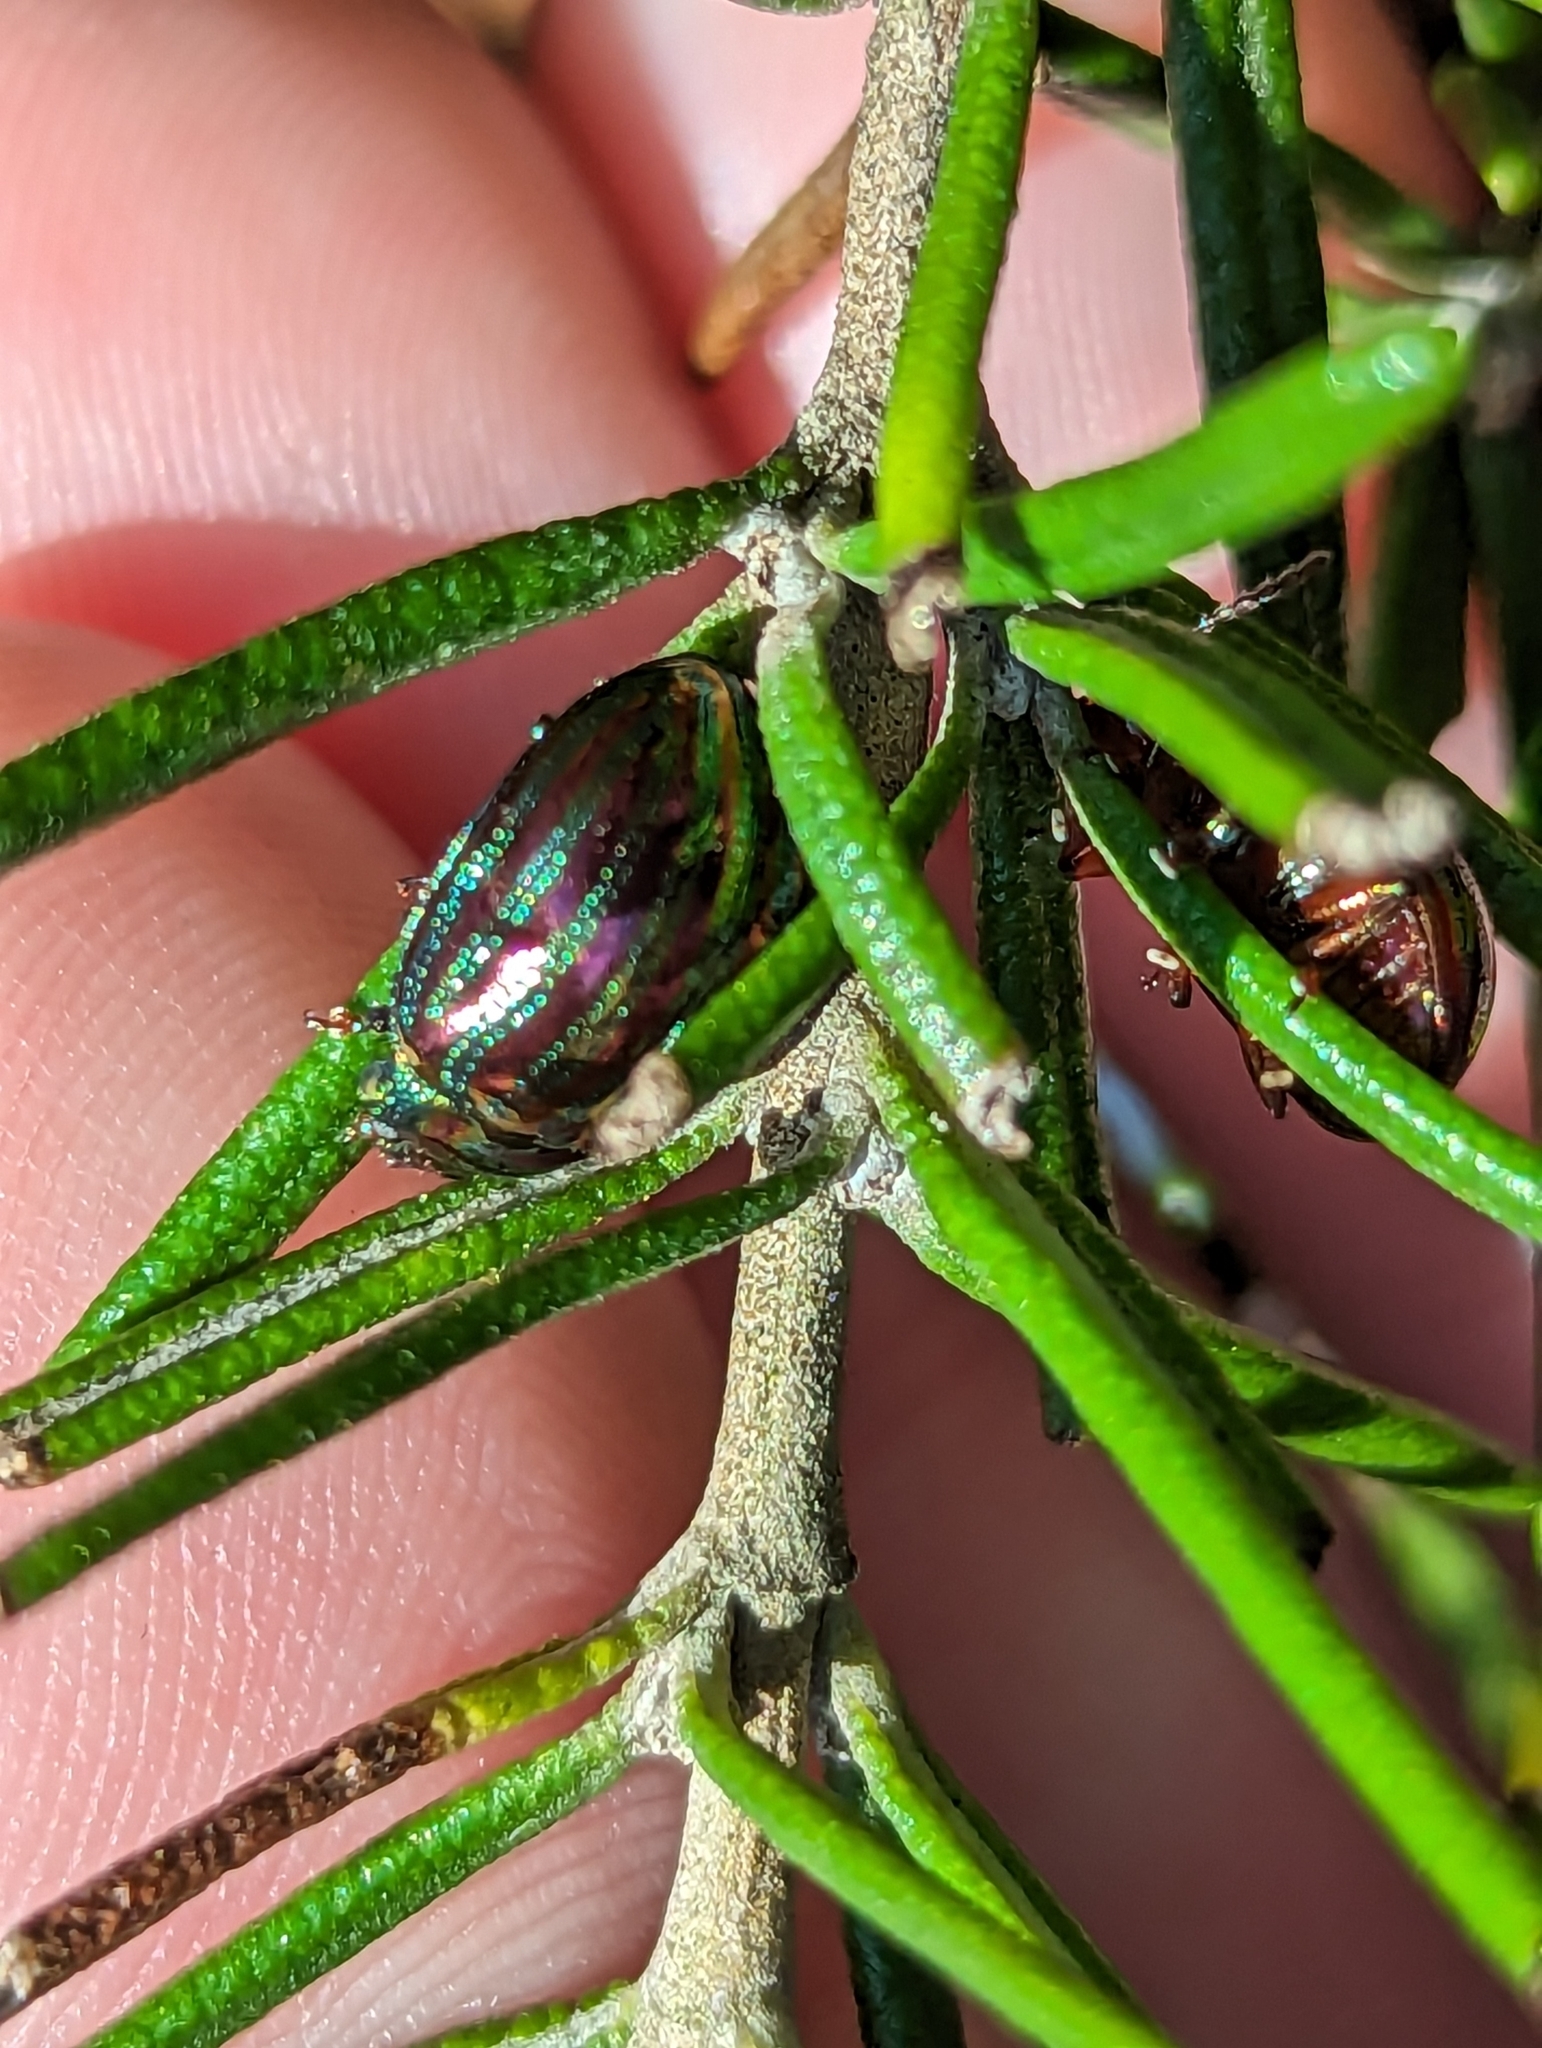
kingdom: Animalia
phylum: Arthropoda
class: Insecta
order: Coleoptera
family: Chrysomelidae
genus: Chrysolina
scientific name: Chrysolina americana
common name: Rosemary beetle
